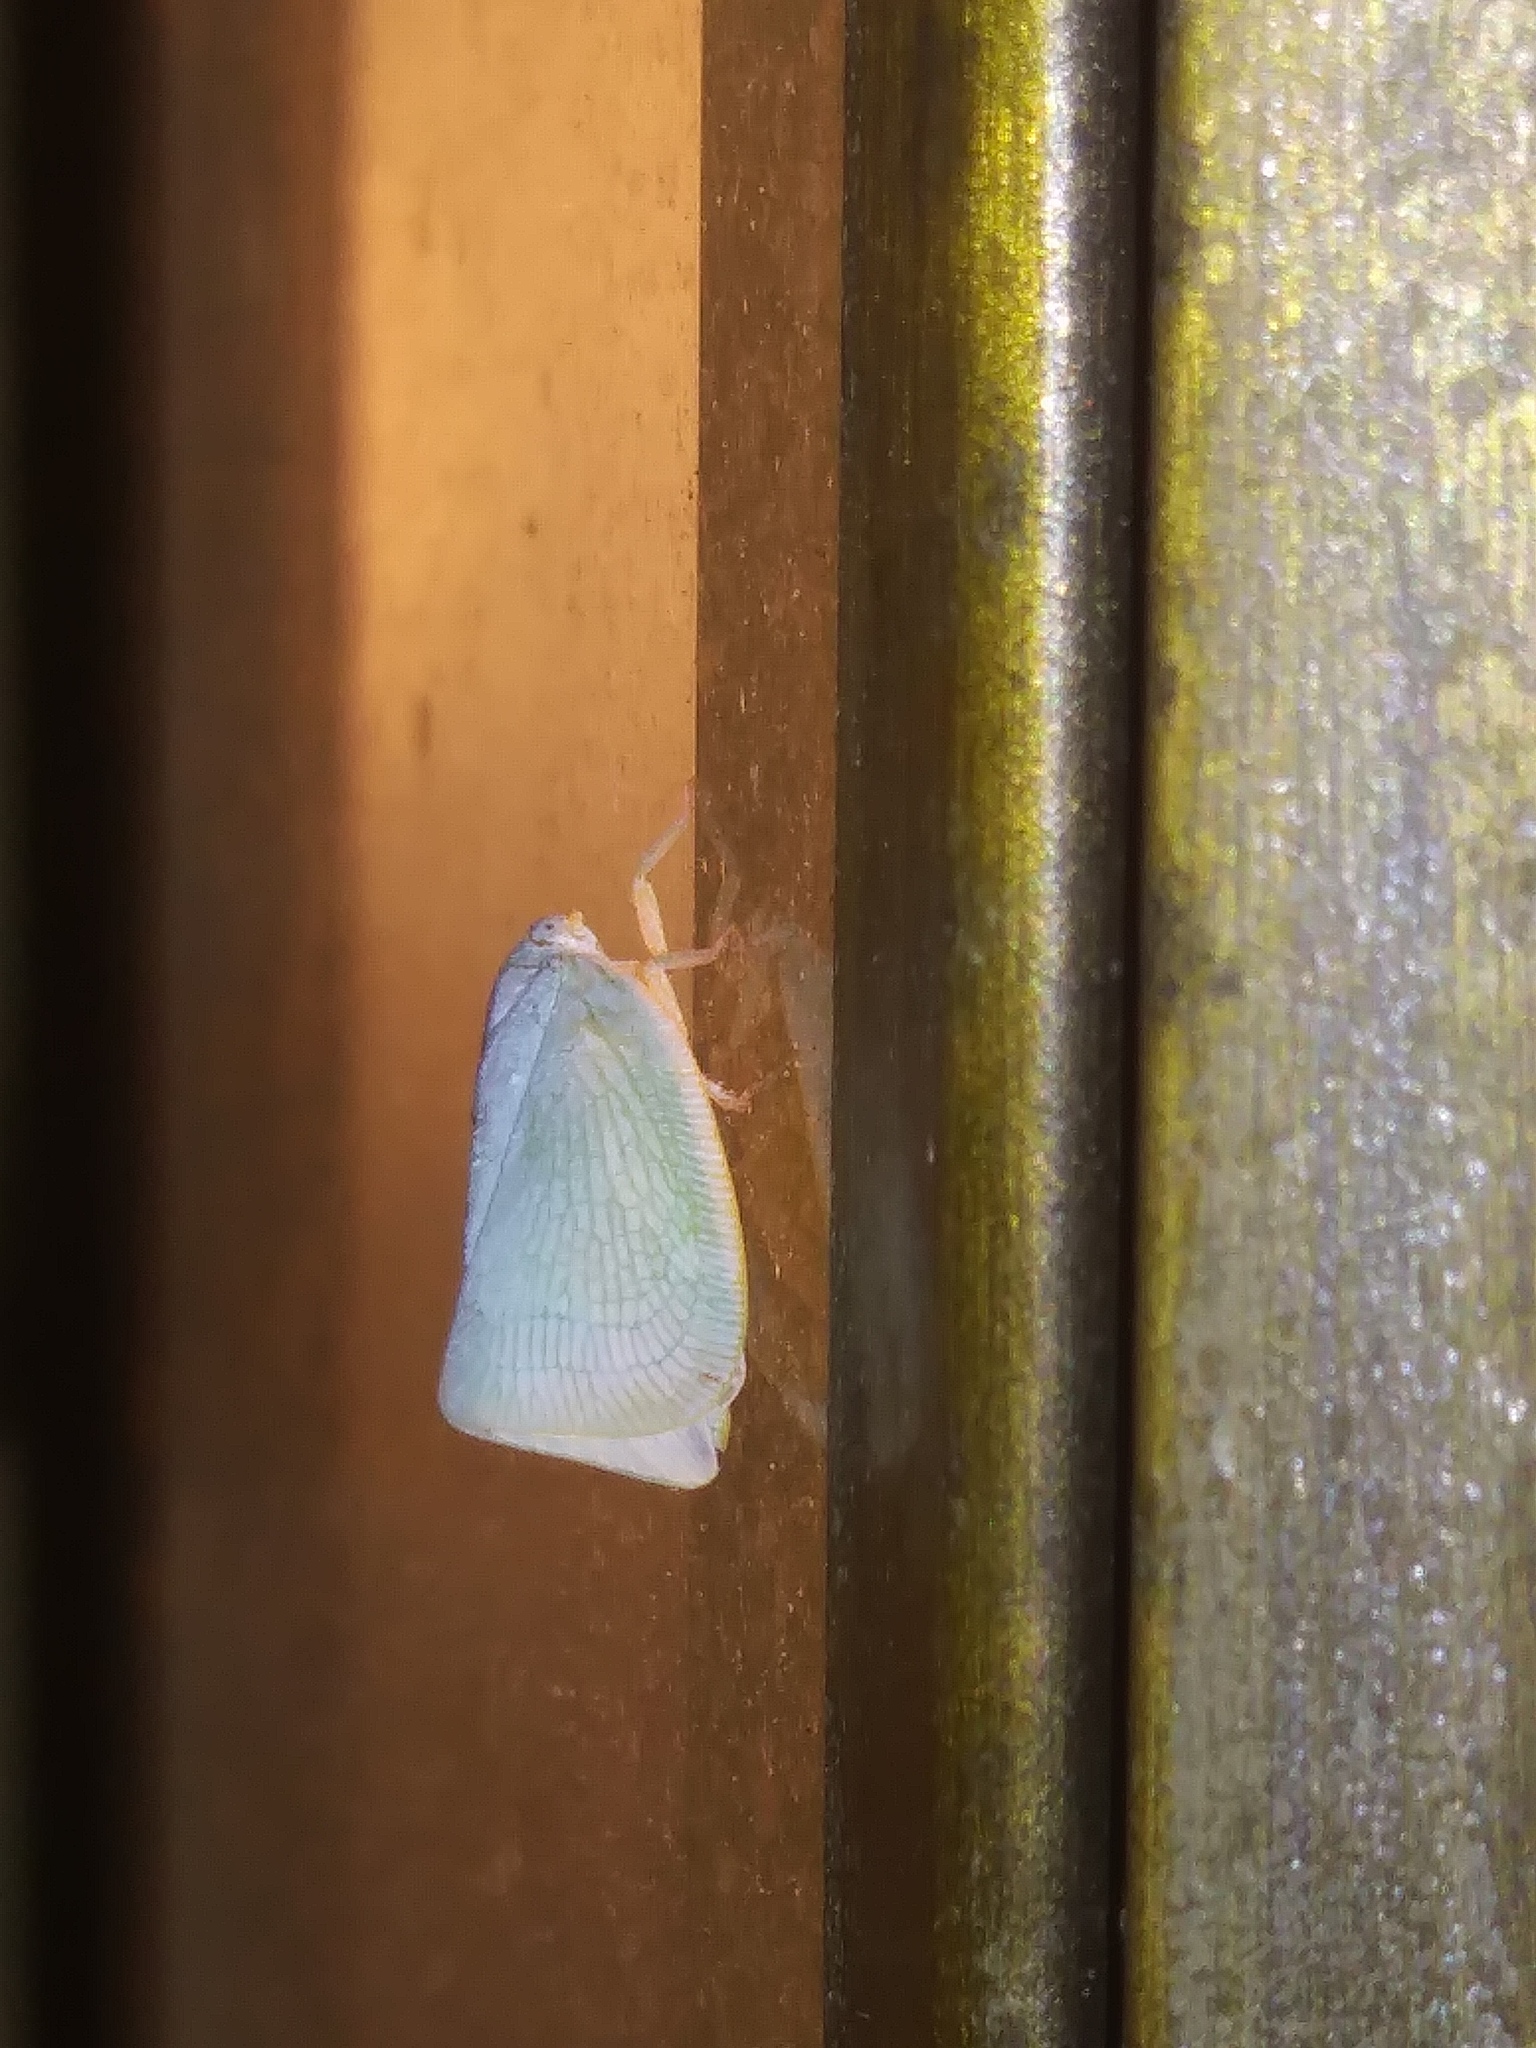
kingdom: Animalia
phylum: Arthropoda
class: Insecta
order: Hemiptera
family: Flatidae
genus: Flatormenis
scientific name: Flatormenis proxima
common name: Northern flatid planthopper
